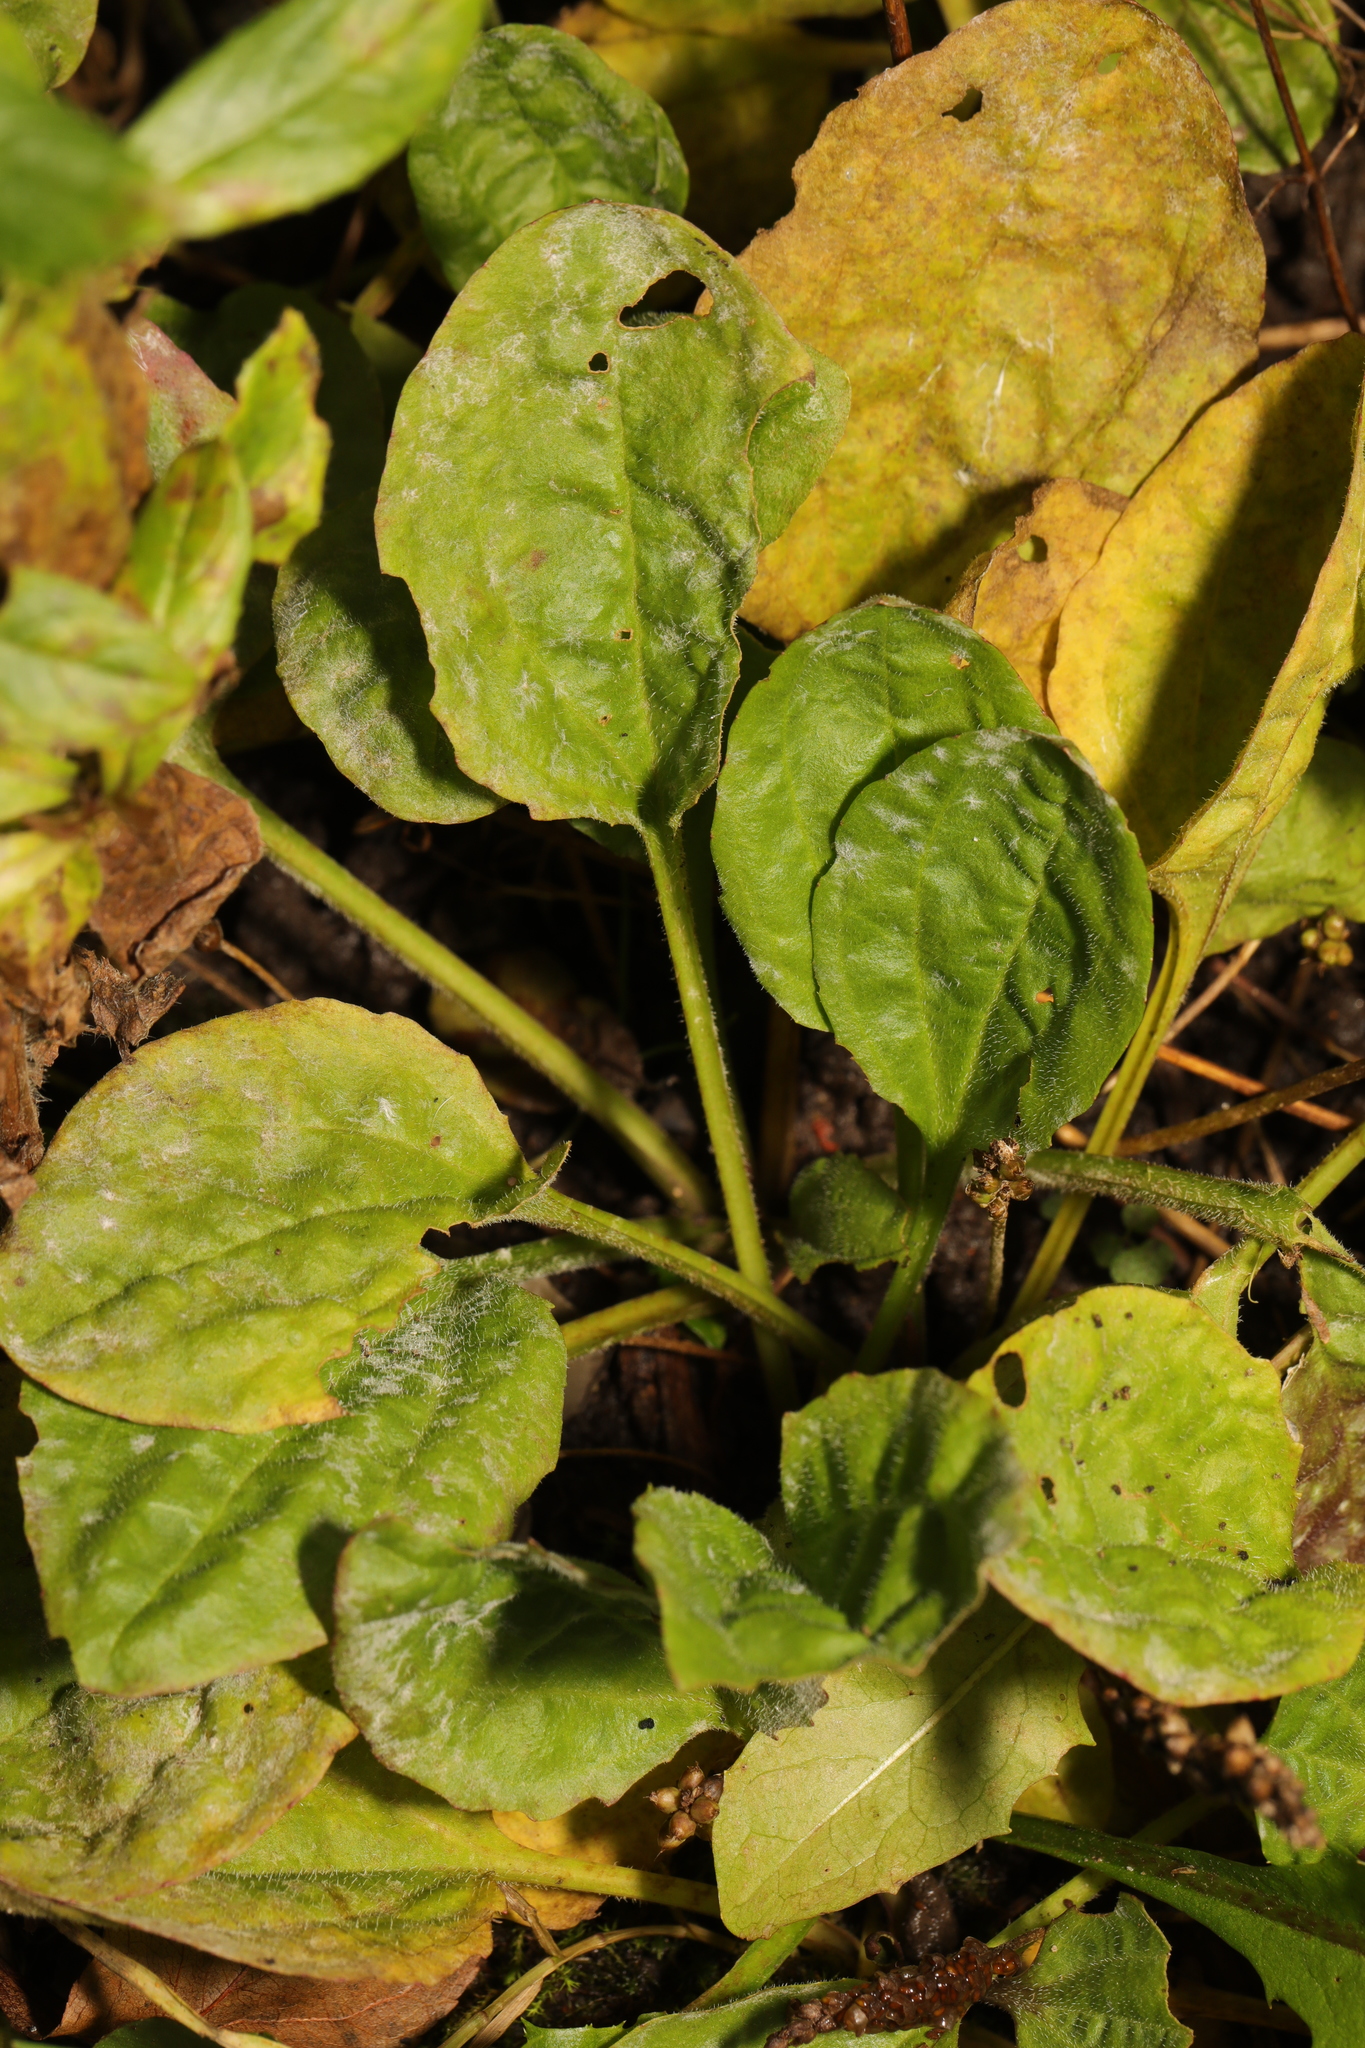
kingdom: Fungi
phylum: Ascomycota
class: Leotiomycetes
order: Helotiales
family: Erysiphaceae
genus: Golovinomyces
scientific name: Golovinomyces sordidus
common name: Plantain mildew
